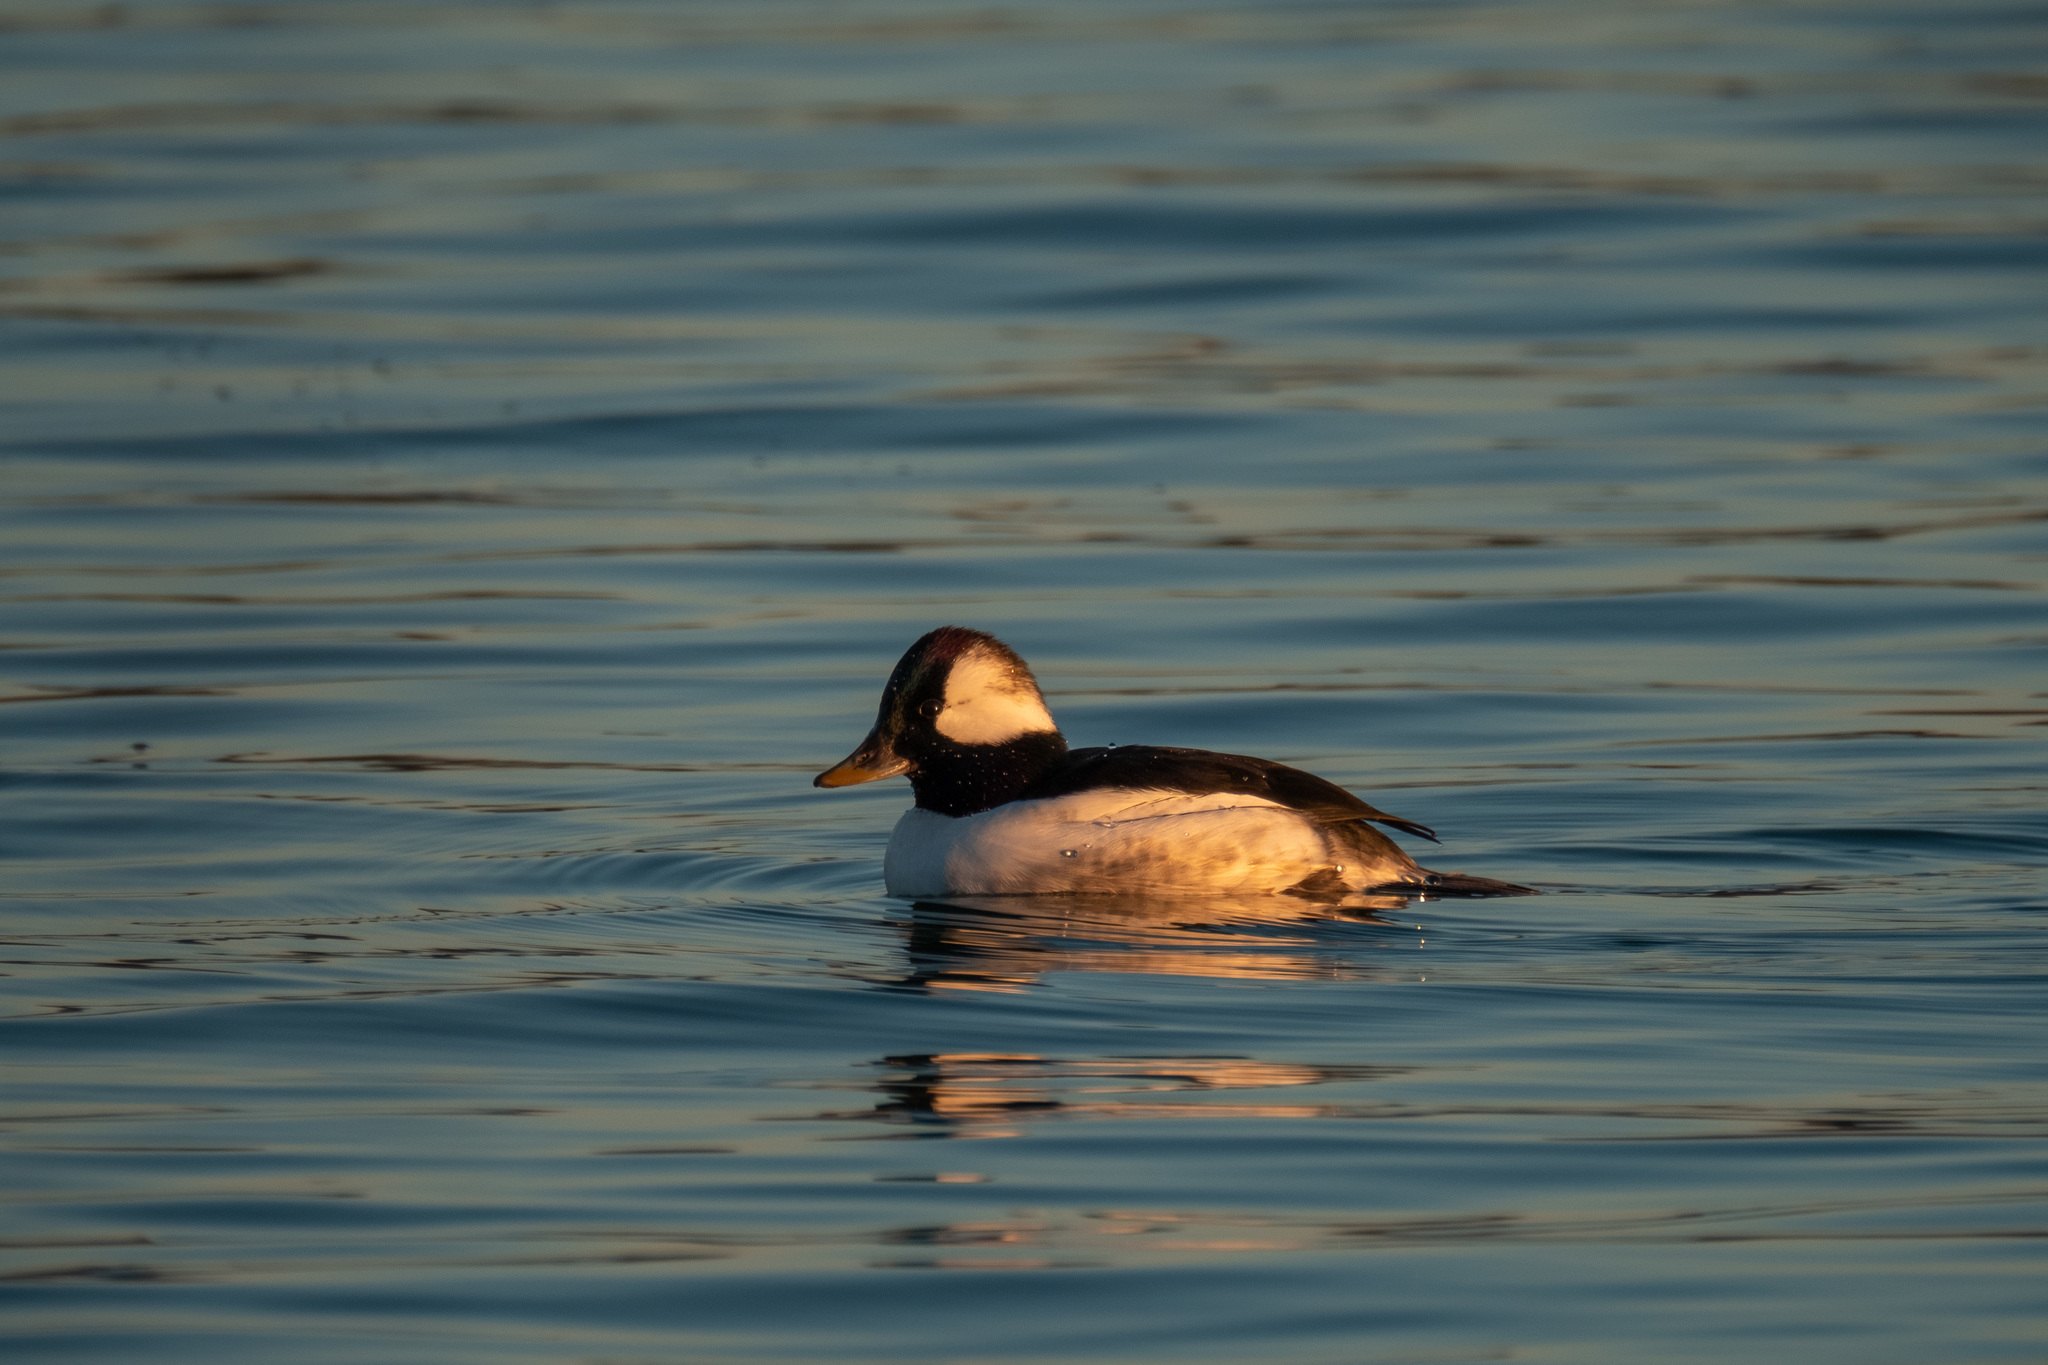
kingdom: Animalia
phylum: Chordata
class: Aves
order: Anseriformes
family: Anatidae
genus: Bucephala
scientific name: Bucephala albeola
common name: Bufflehead
